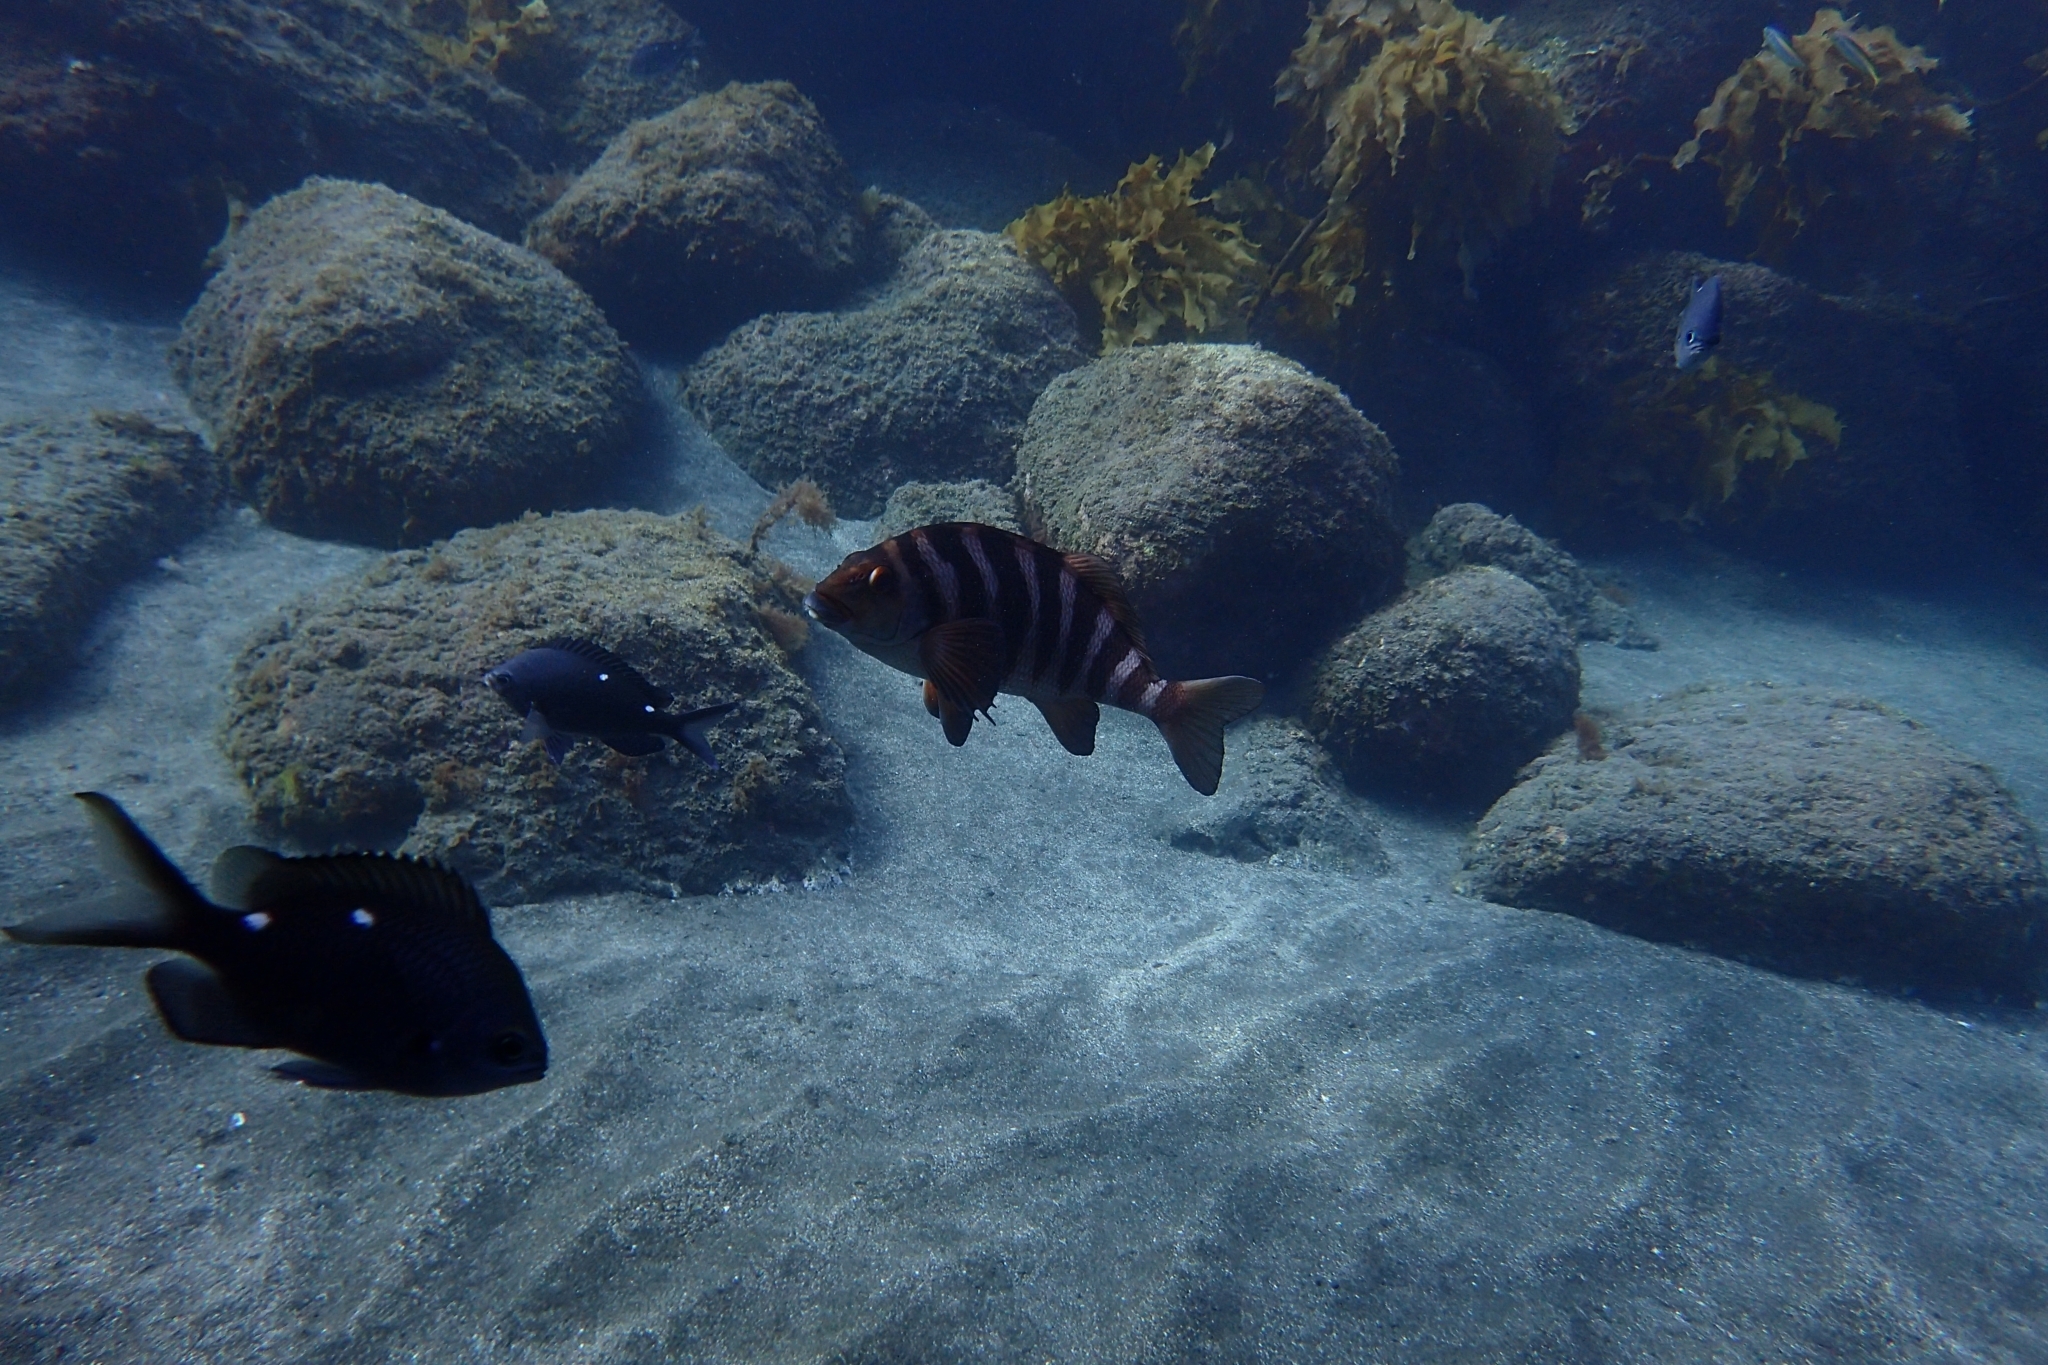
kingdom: Animalia
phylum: Chordata
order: Perciformes
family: Cheilodactylidae
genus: Cheilodactylus
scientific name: Cheilodactylus spectabilis
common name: Red moki
